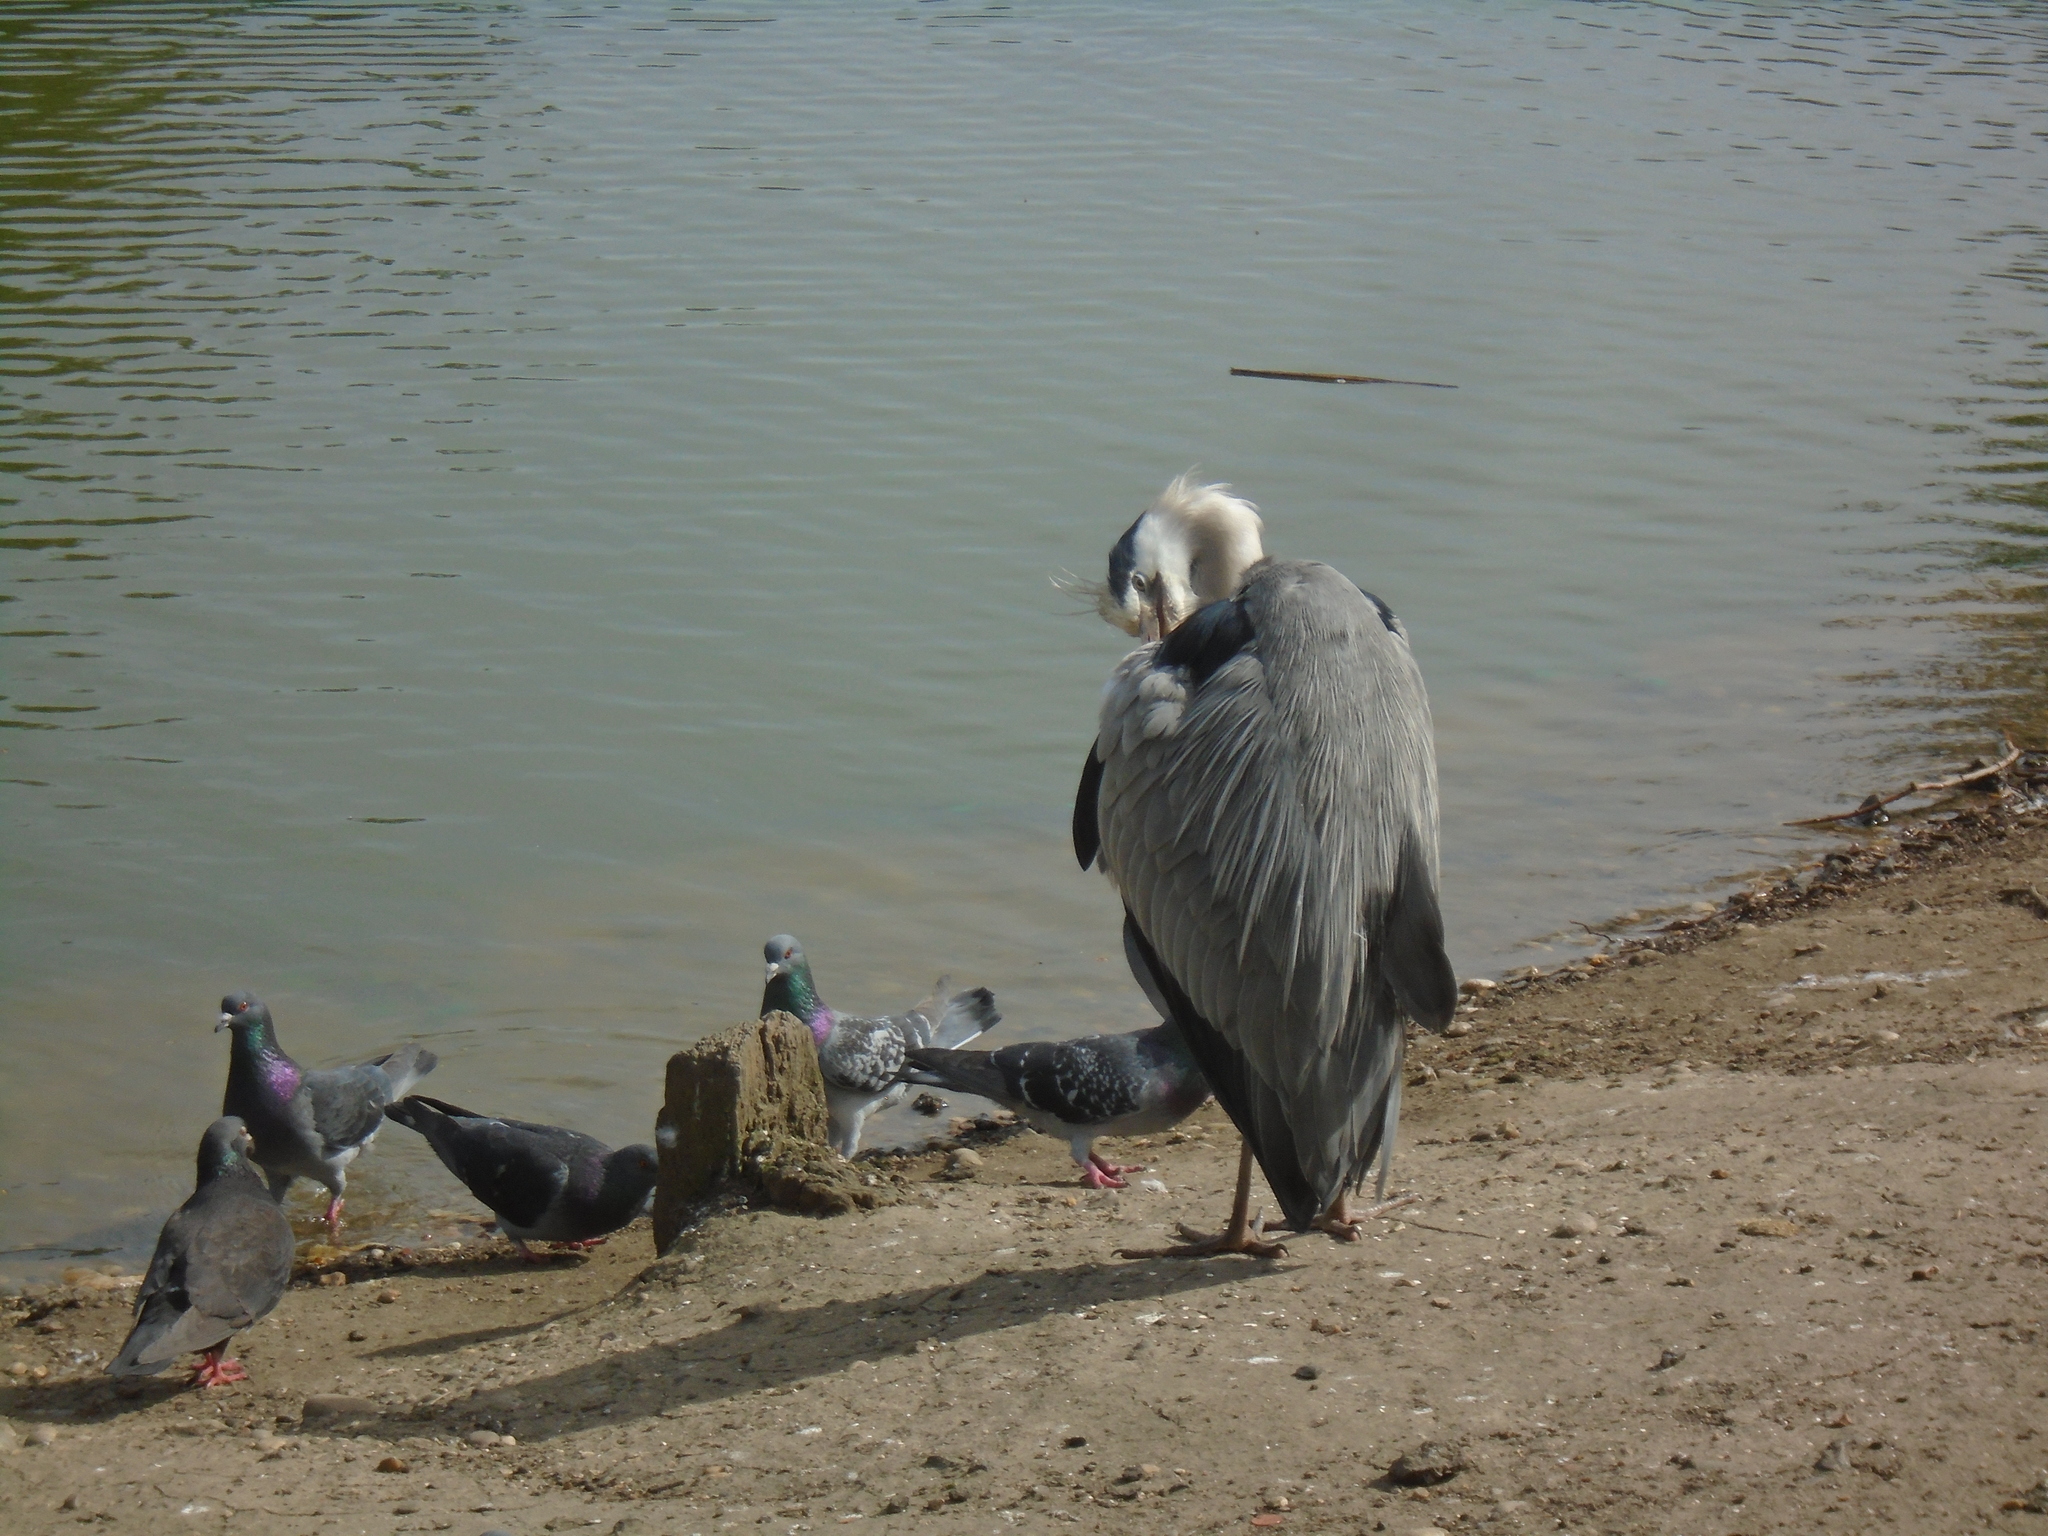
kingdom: Animalia
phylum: Chordata
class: Aves
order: Pelecaniformes
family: Ardeidae
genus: Ardea
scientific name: Ardea cinerea
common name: Grey heron
